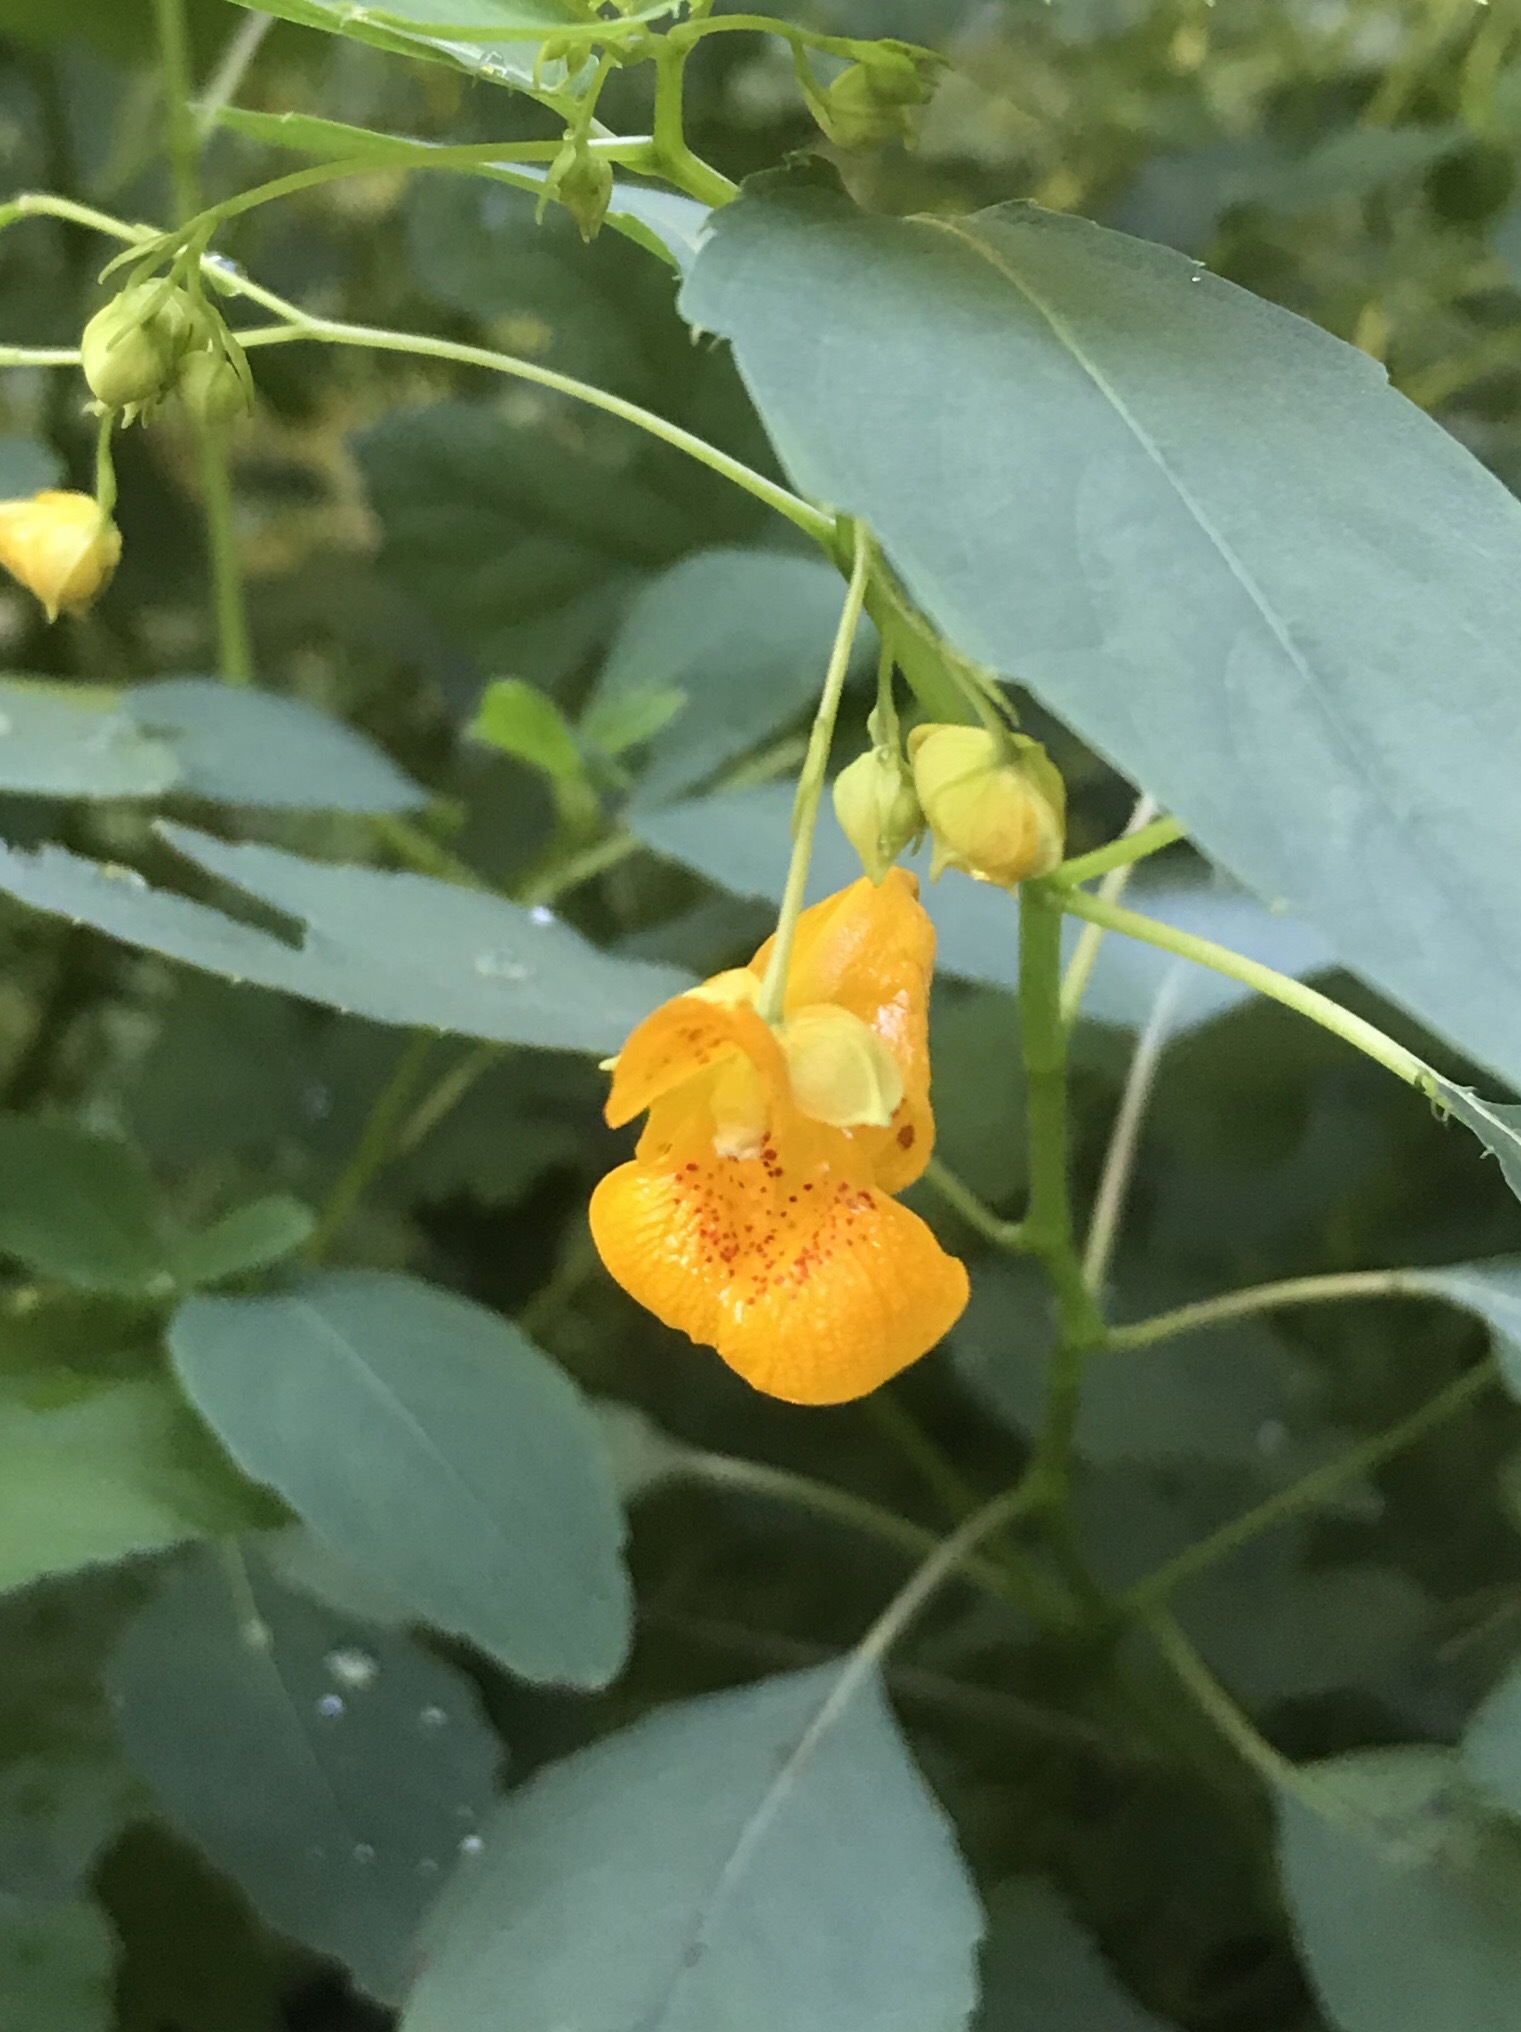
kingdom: Plantae
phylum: Tracheophyta
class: Magnoliopsida
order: Ericales
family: Balsaminaceae
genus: Impatiens
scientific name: Impatiens capensis
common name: Orange balsam
